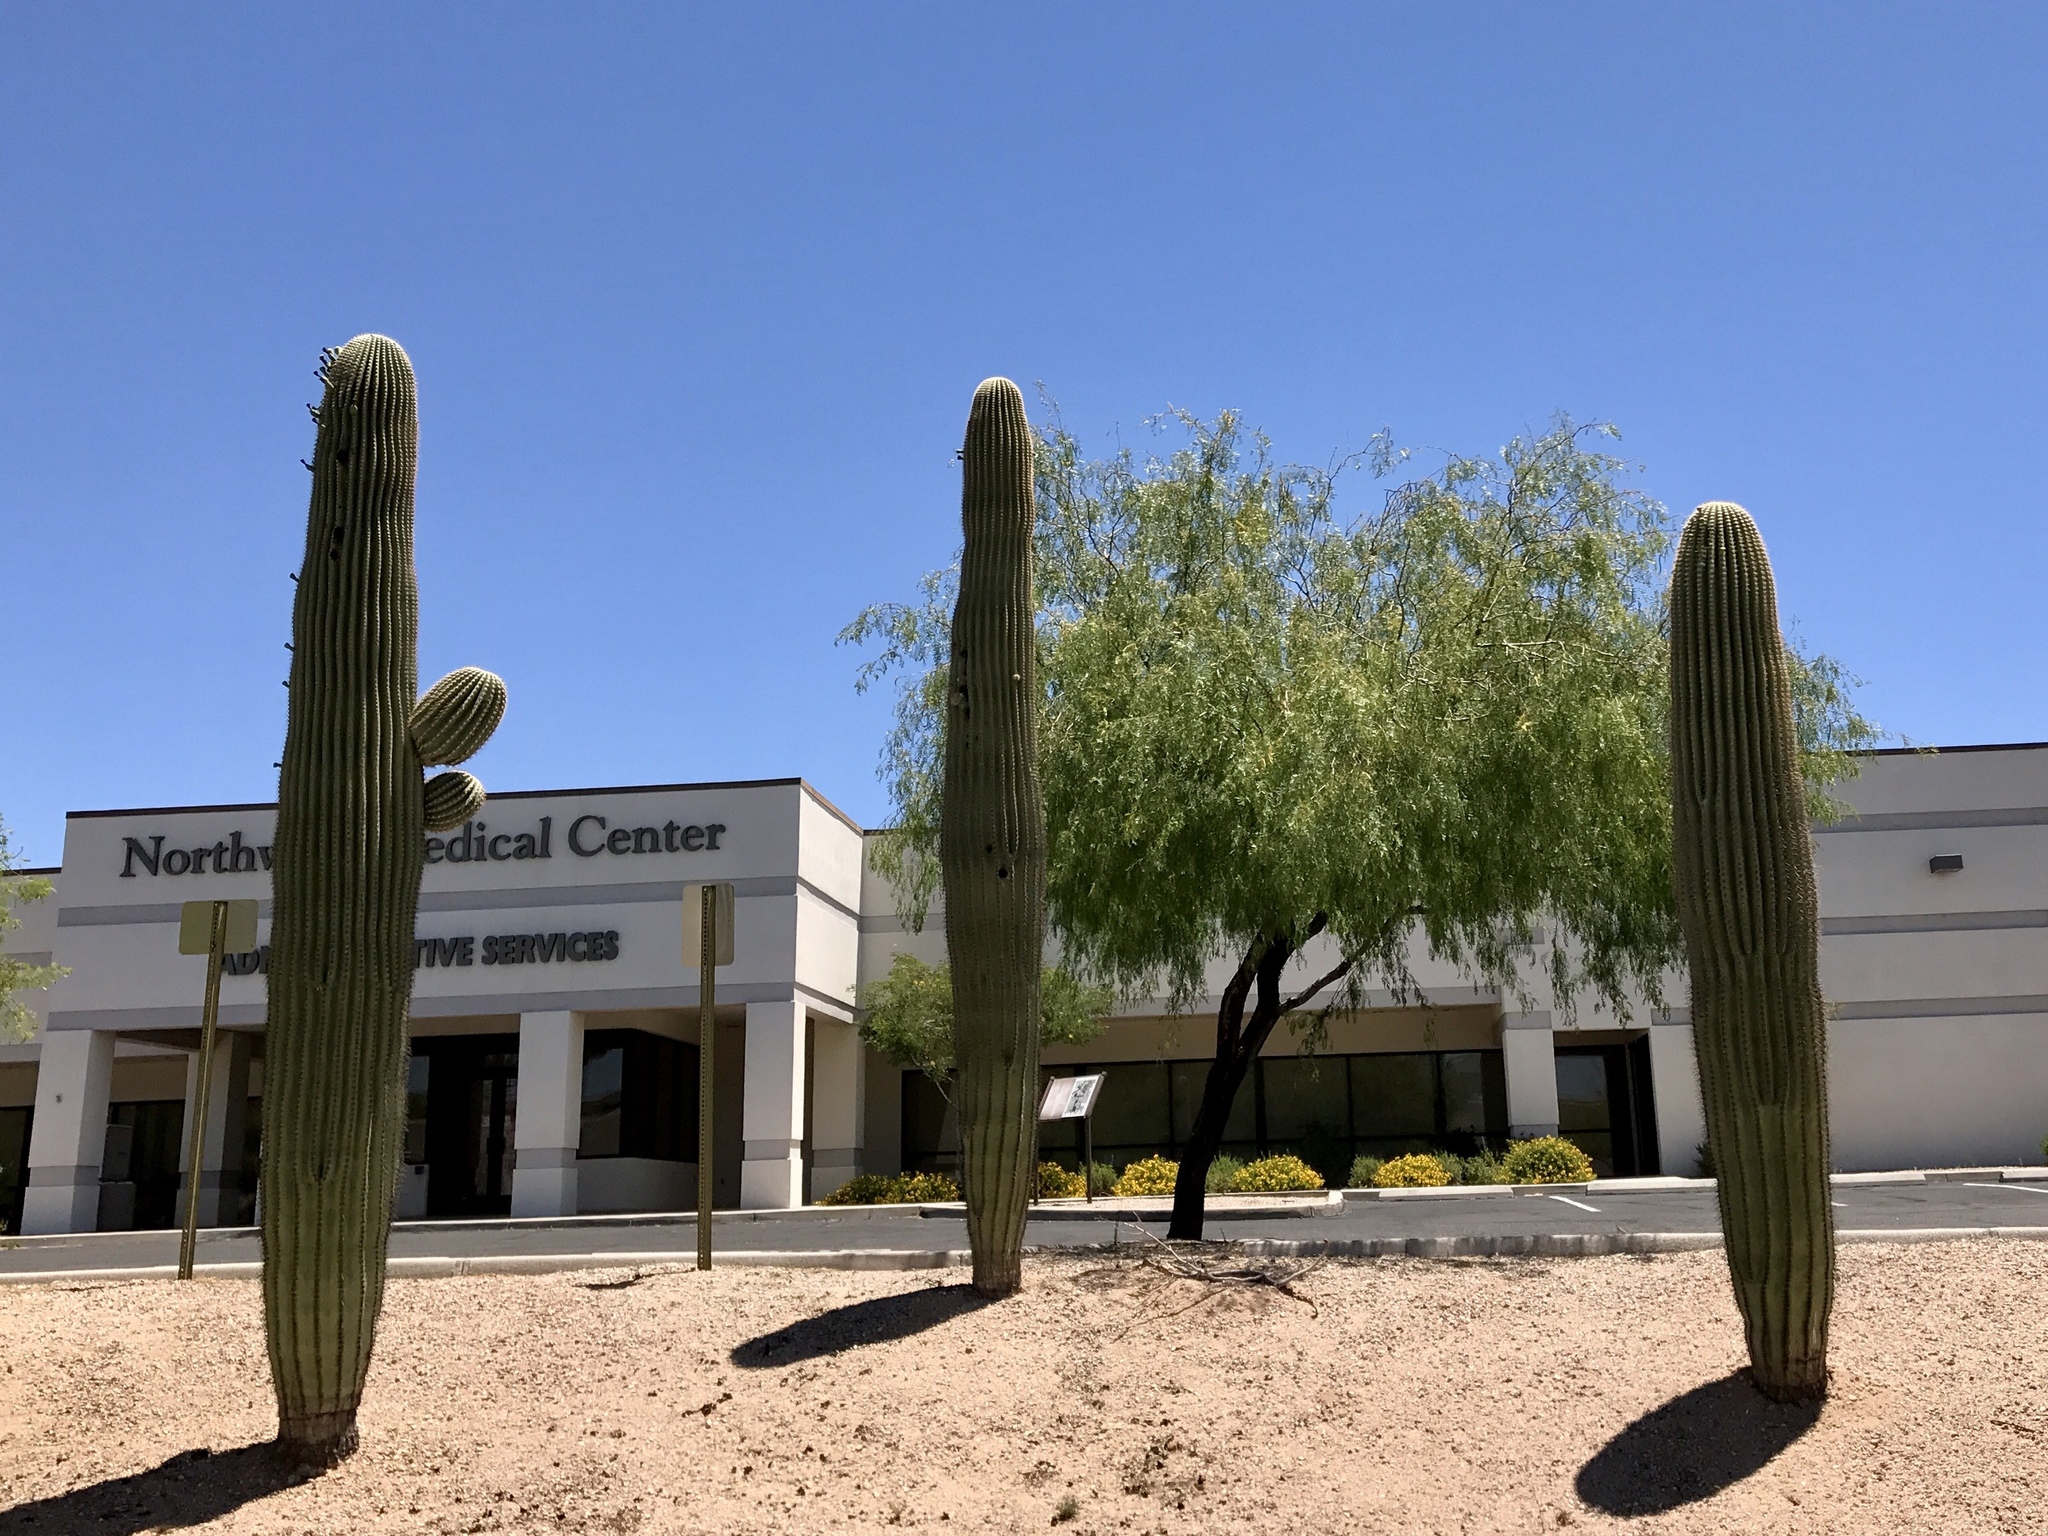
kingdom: Plantae
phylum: Tracheophyta
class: Magnoliopsida
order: Caryophyllales
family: Cactaceae
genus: Carnegiea
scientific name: Carnegiea gigantea
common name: Saguaro
